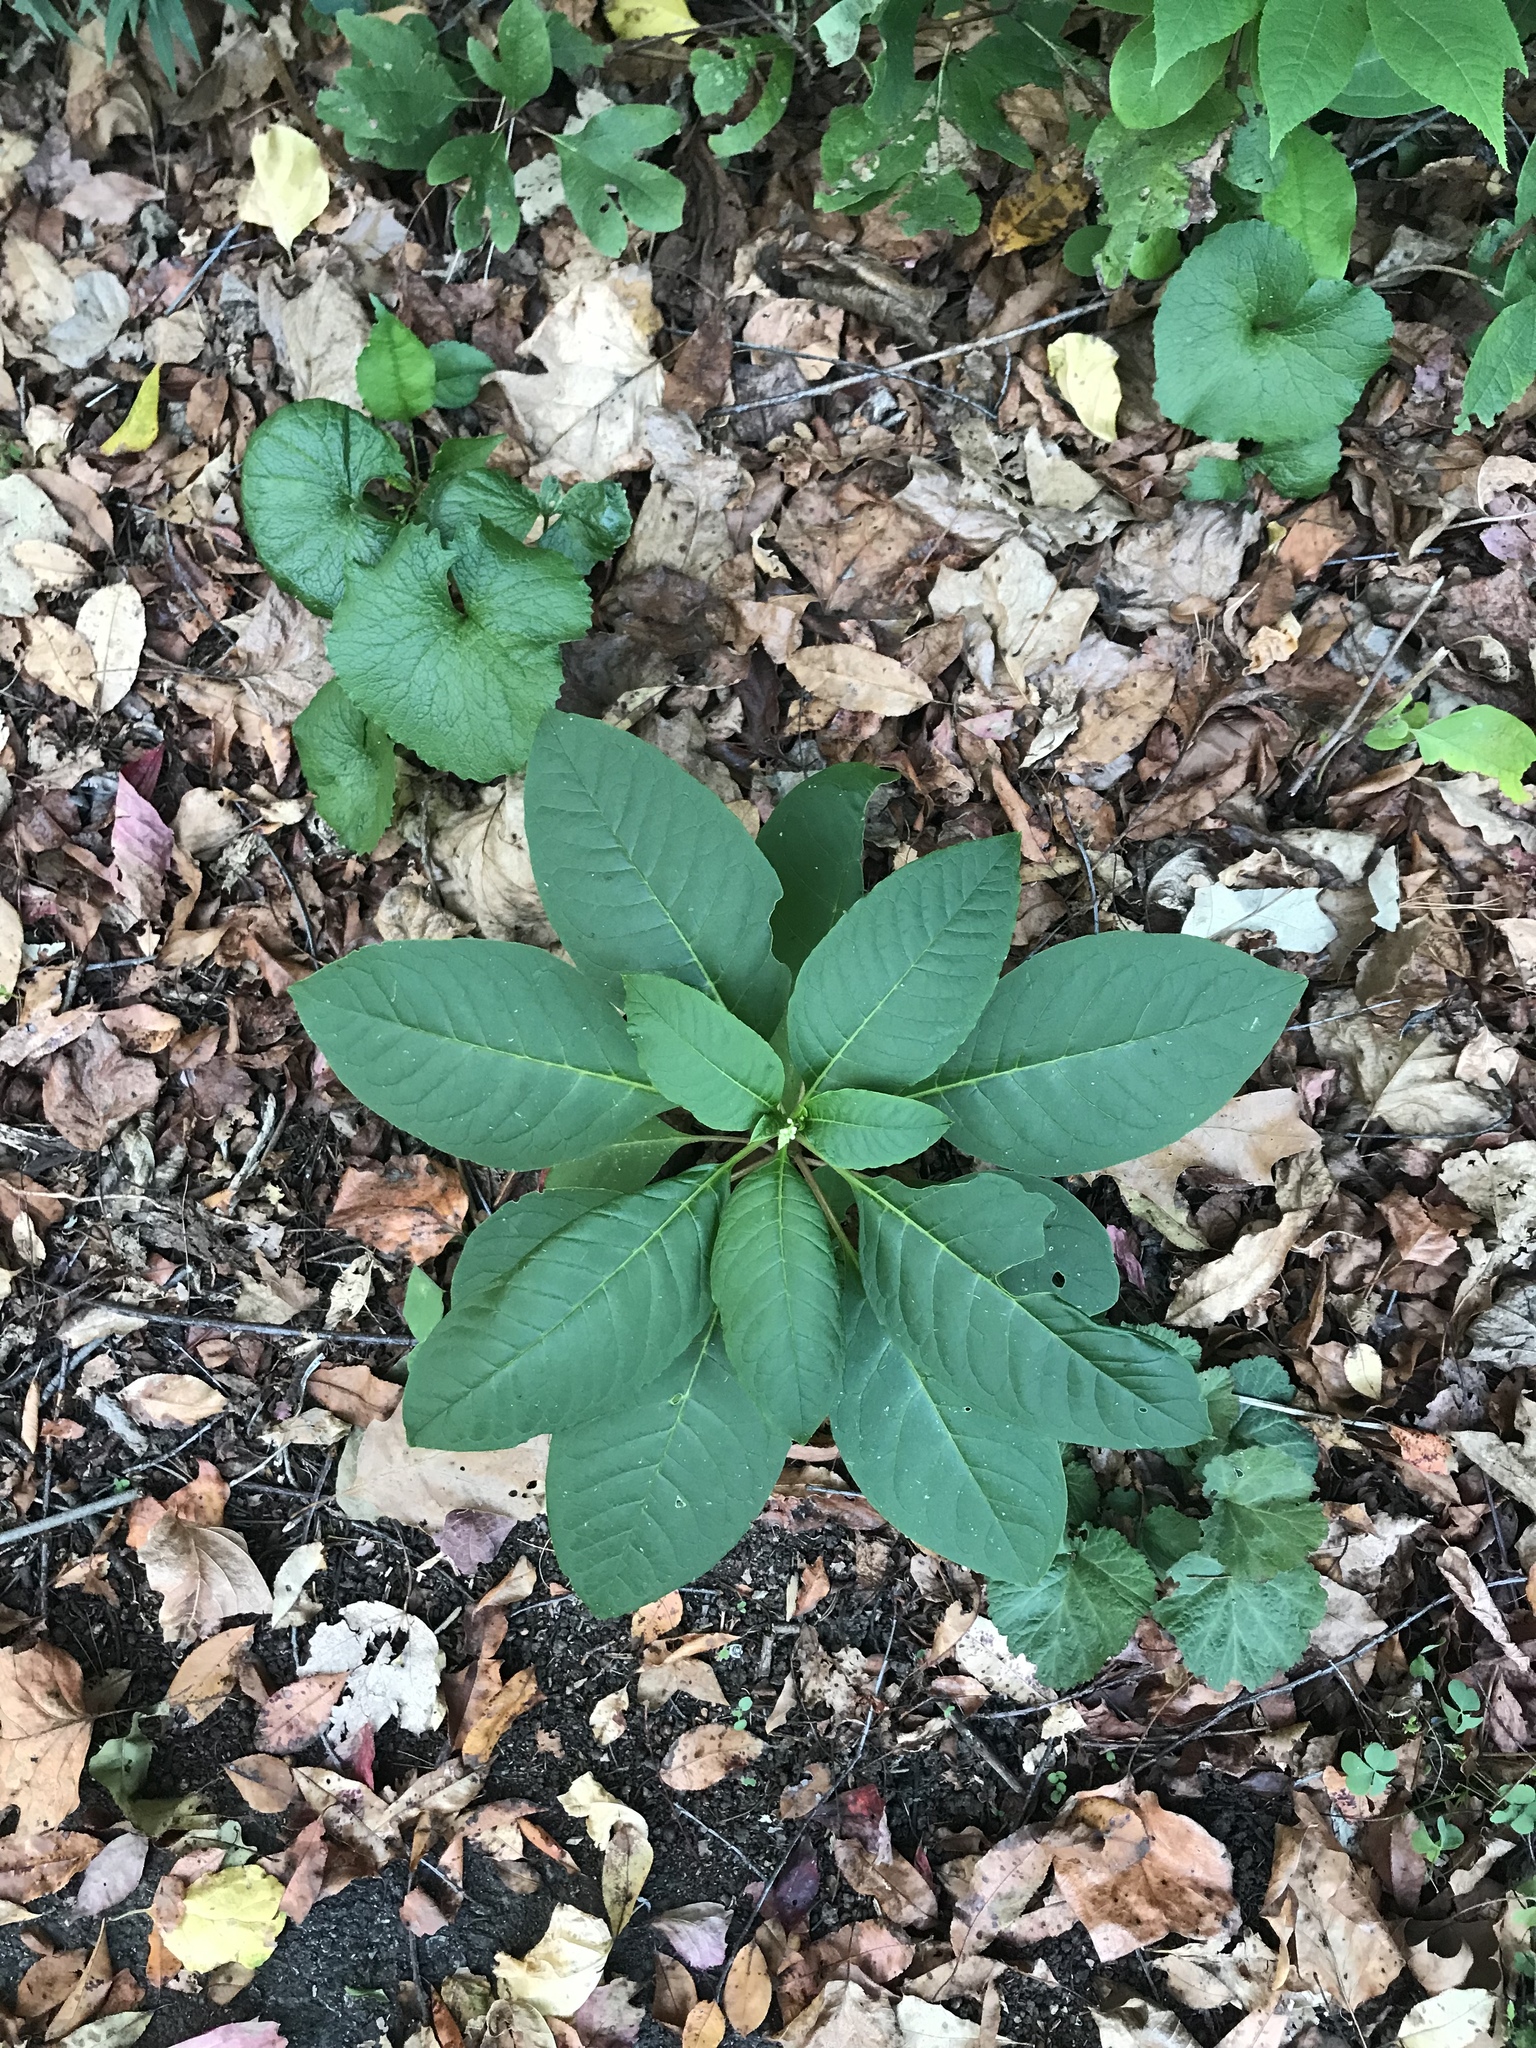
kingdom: Plantae
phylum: Tracheophyta
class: Magnoliopsida
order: Caryophyllales
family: Phytolaccaceae
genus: Phytolacca
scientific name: Phytolacca americana
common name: American pokeweed
